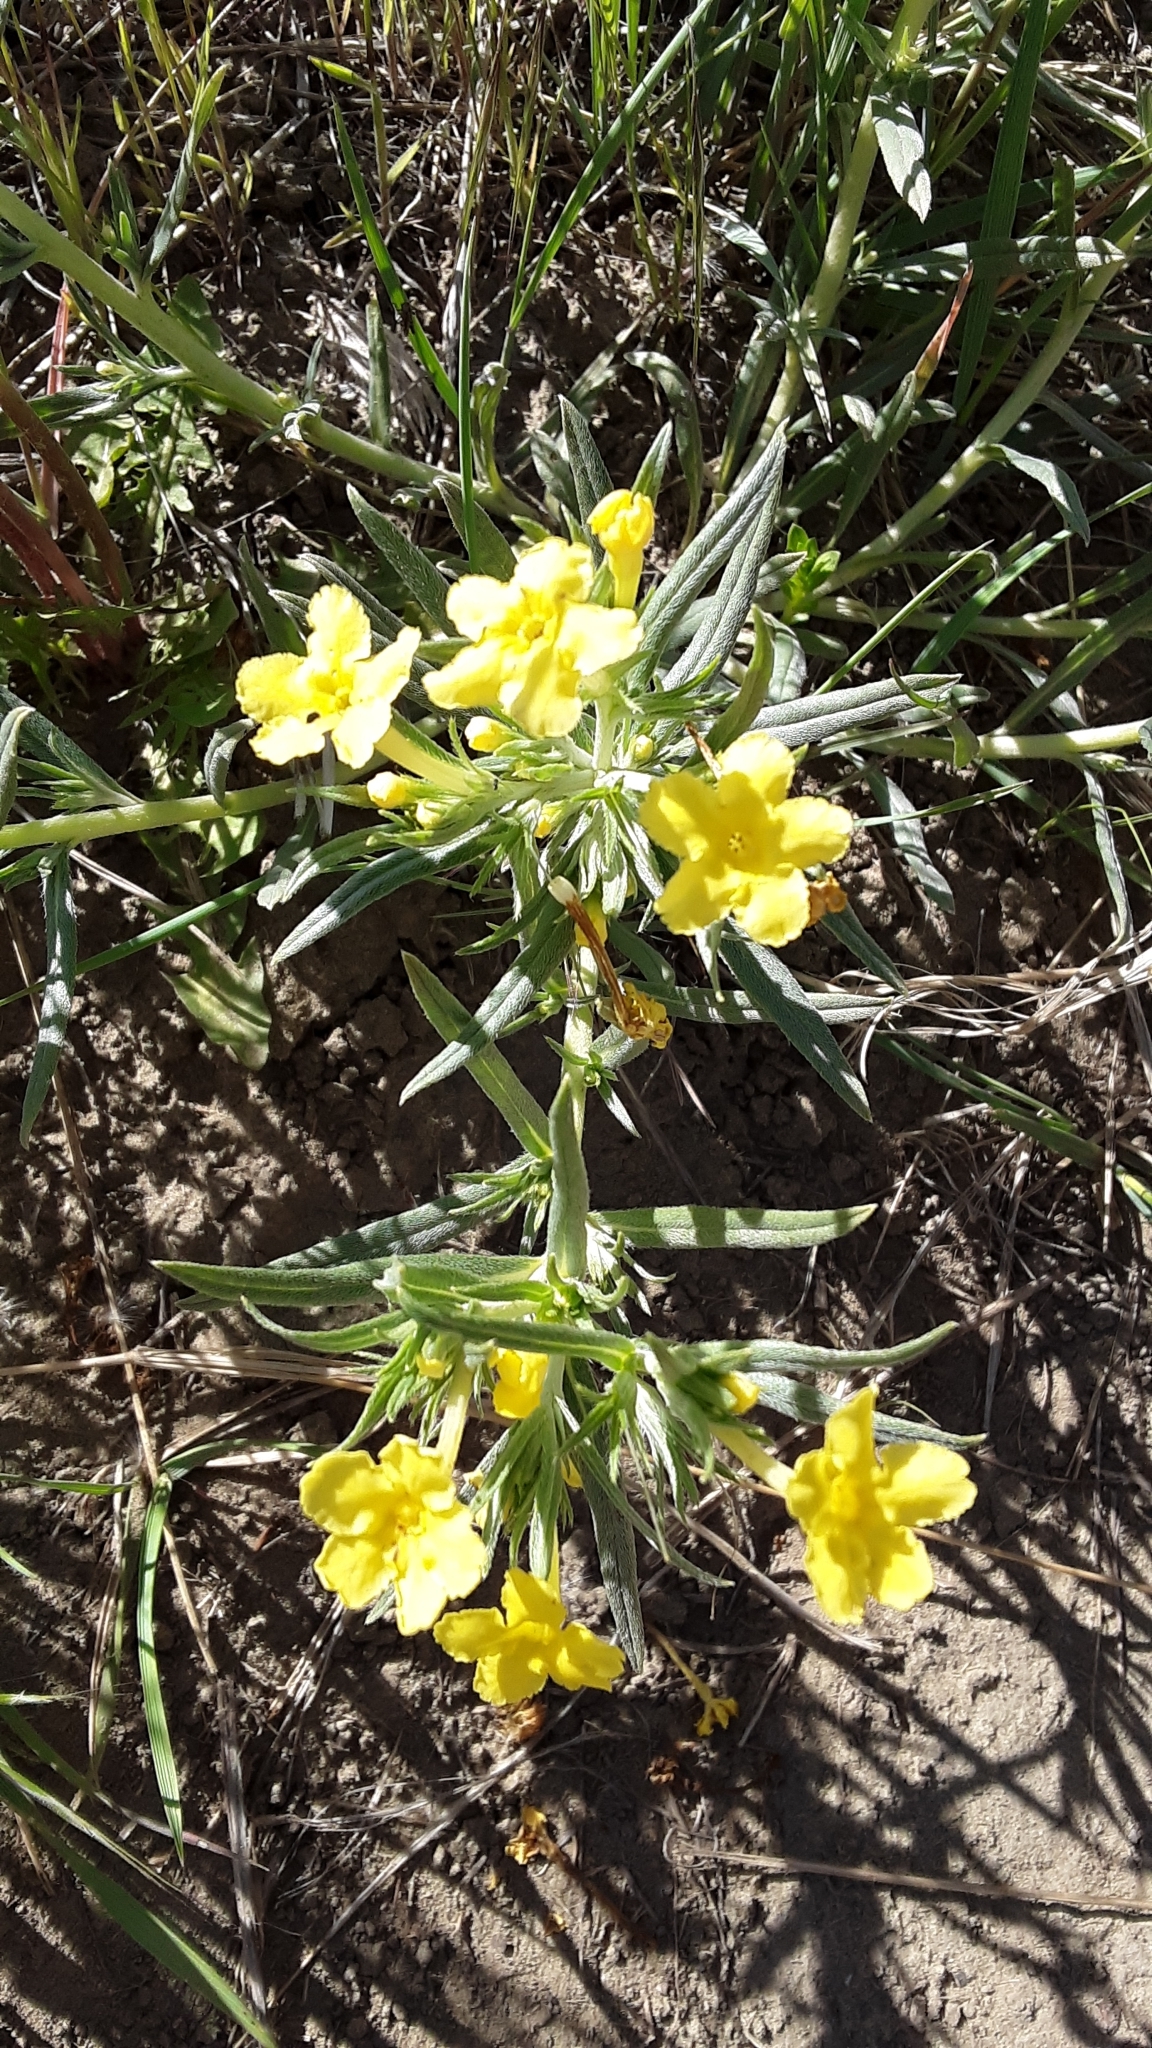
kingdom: Plantae
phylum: Tracheophyta
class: Magnoliopsida
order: Boraginales
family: Boraginaceae
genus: Lithospermum
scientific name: Lithospermum incisum
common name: Fringed gromwell
